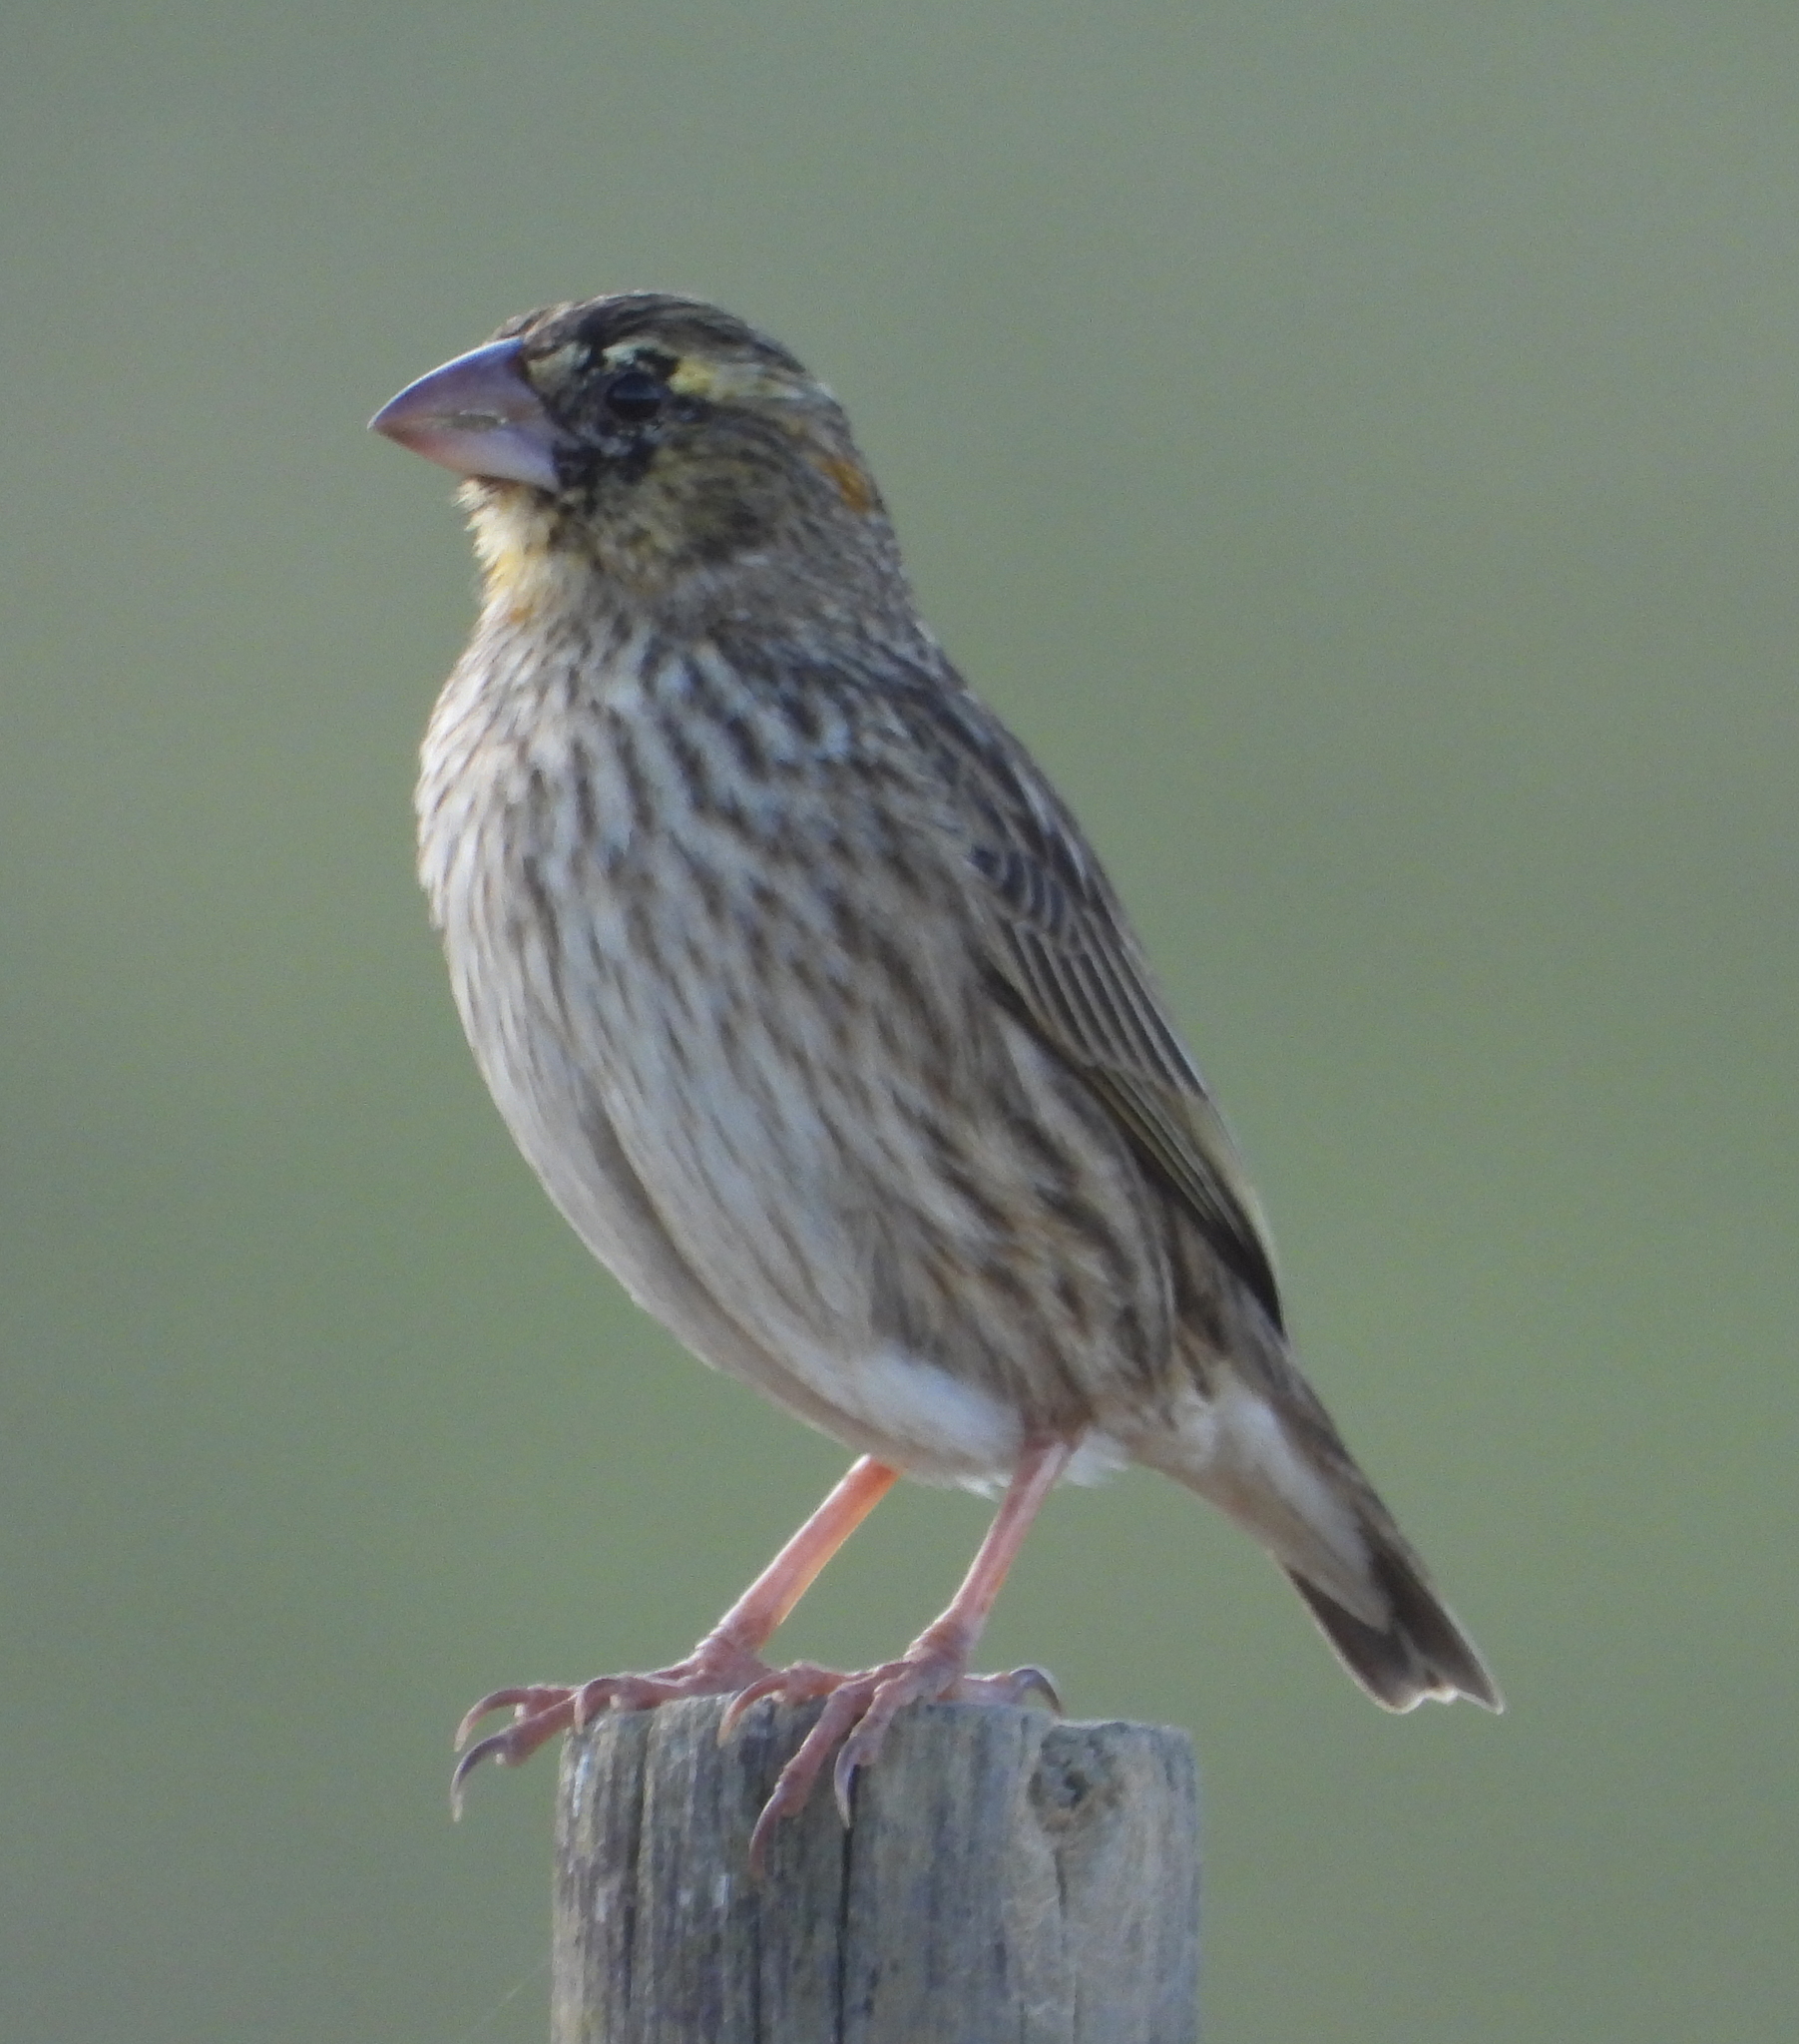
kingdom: Animalia
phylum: Chordata
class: Aves
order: Passeriformes
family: Ploceidae
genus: Euplectes
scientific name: Euplectes orix
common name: Southern red bishop
